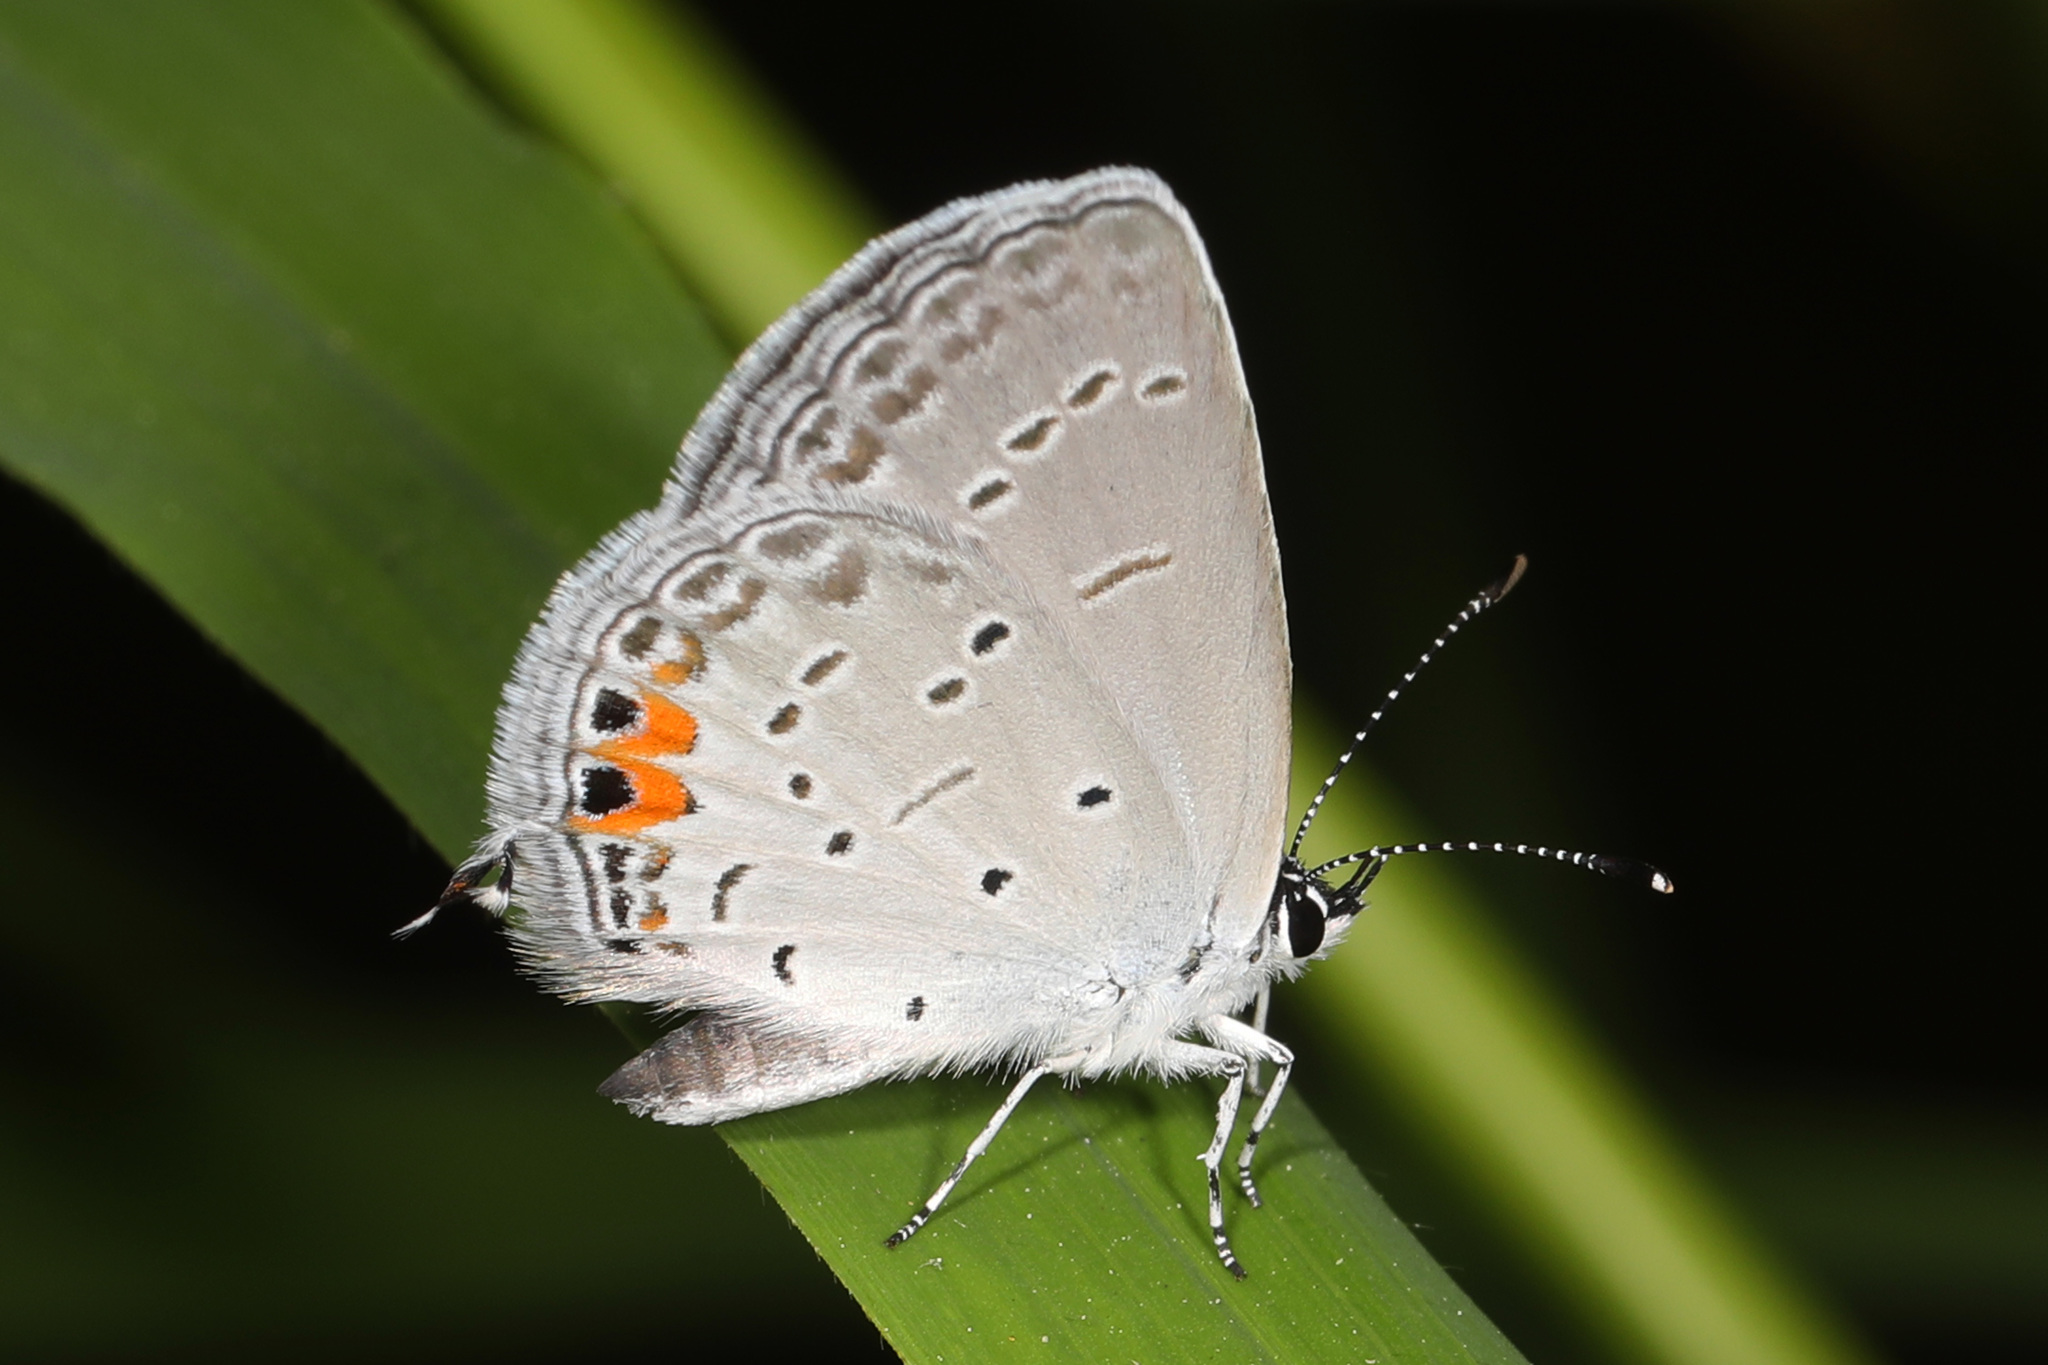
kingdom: Animalia
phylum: Arthropoda
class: Insecta
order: Lepidoptera
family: Lycaenidae
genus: Elkalyce
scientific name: Elkalyce comyntas
